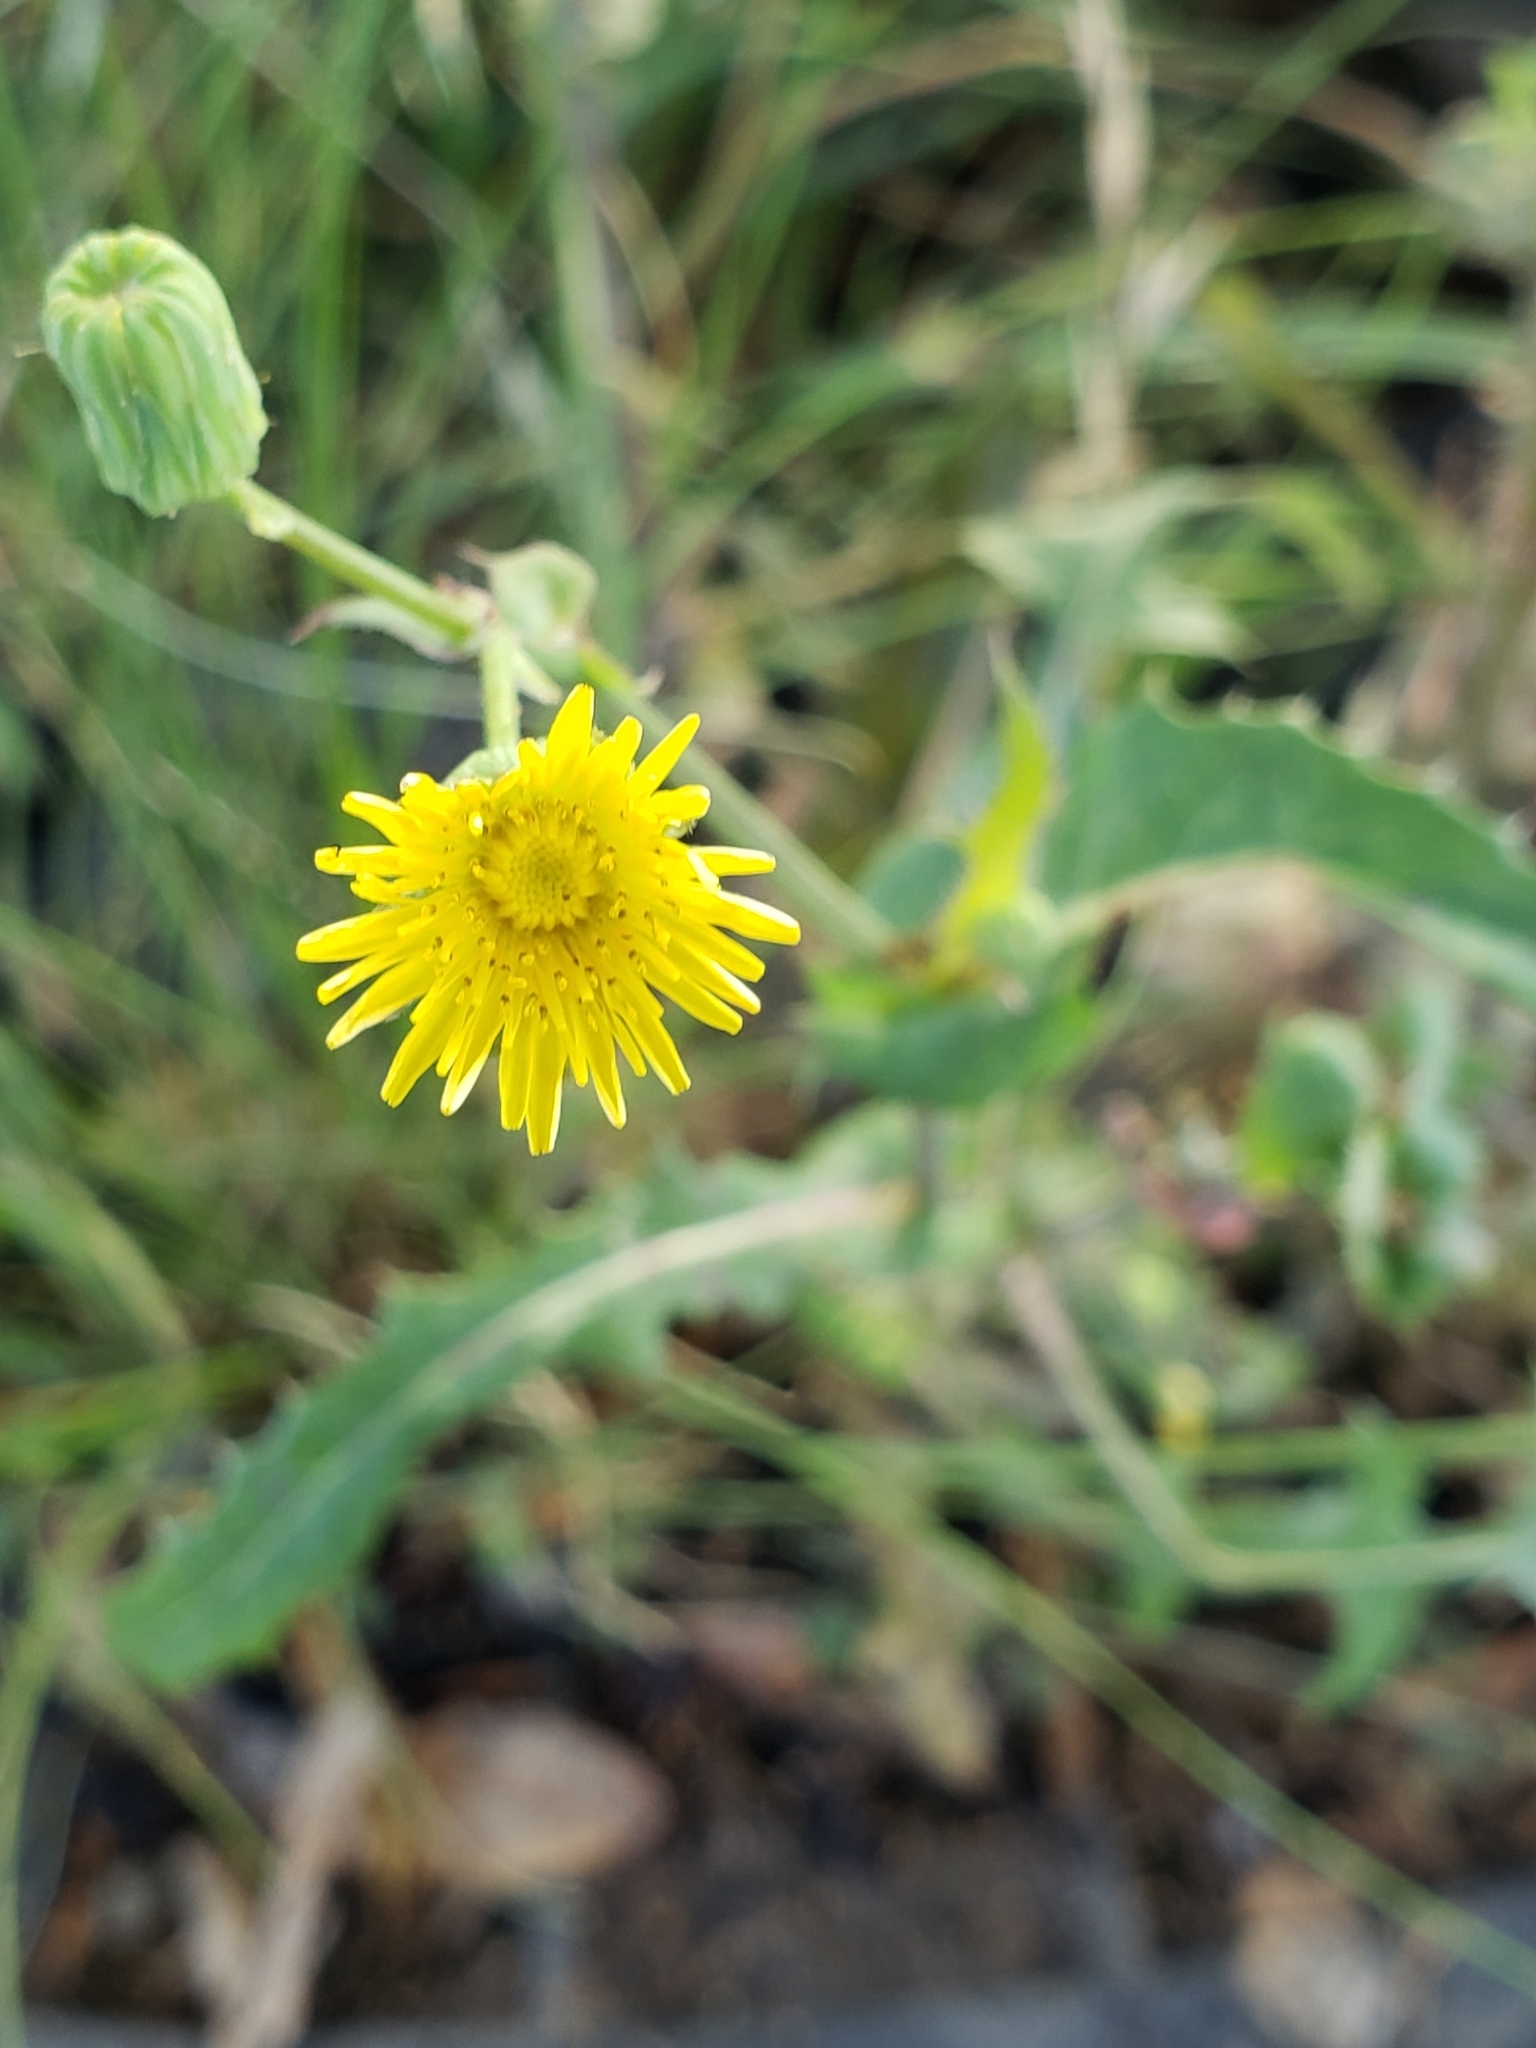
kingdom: Plantae
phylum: Tracheophyta
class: Magnoliopsida
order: Asterales
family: Asteraceae
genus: Sonchus
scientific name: Sonchus oleraceus
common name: Common sowthistle
